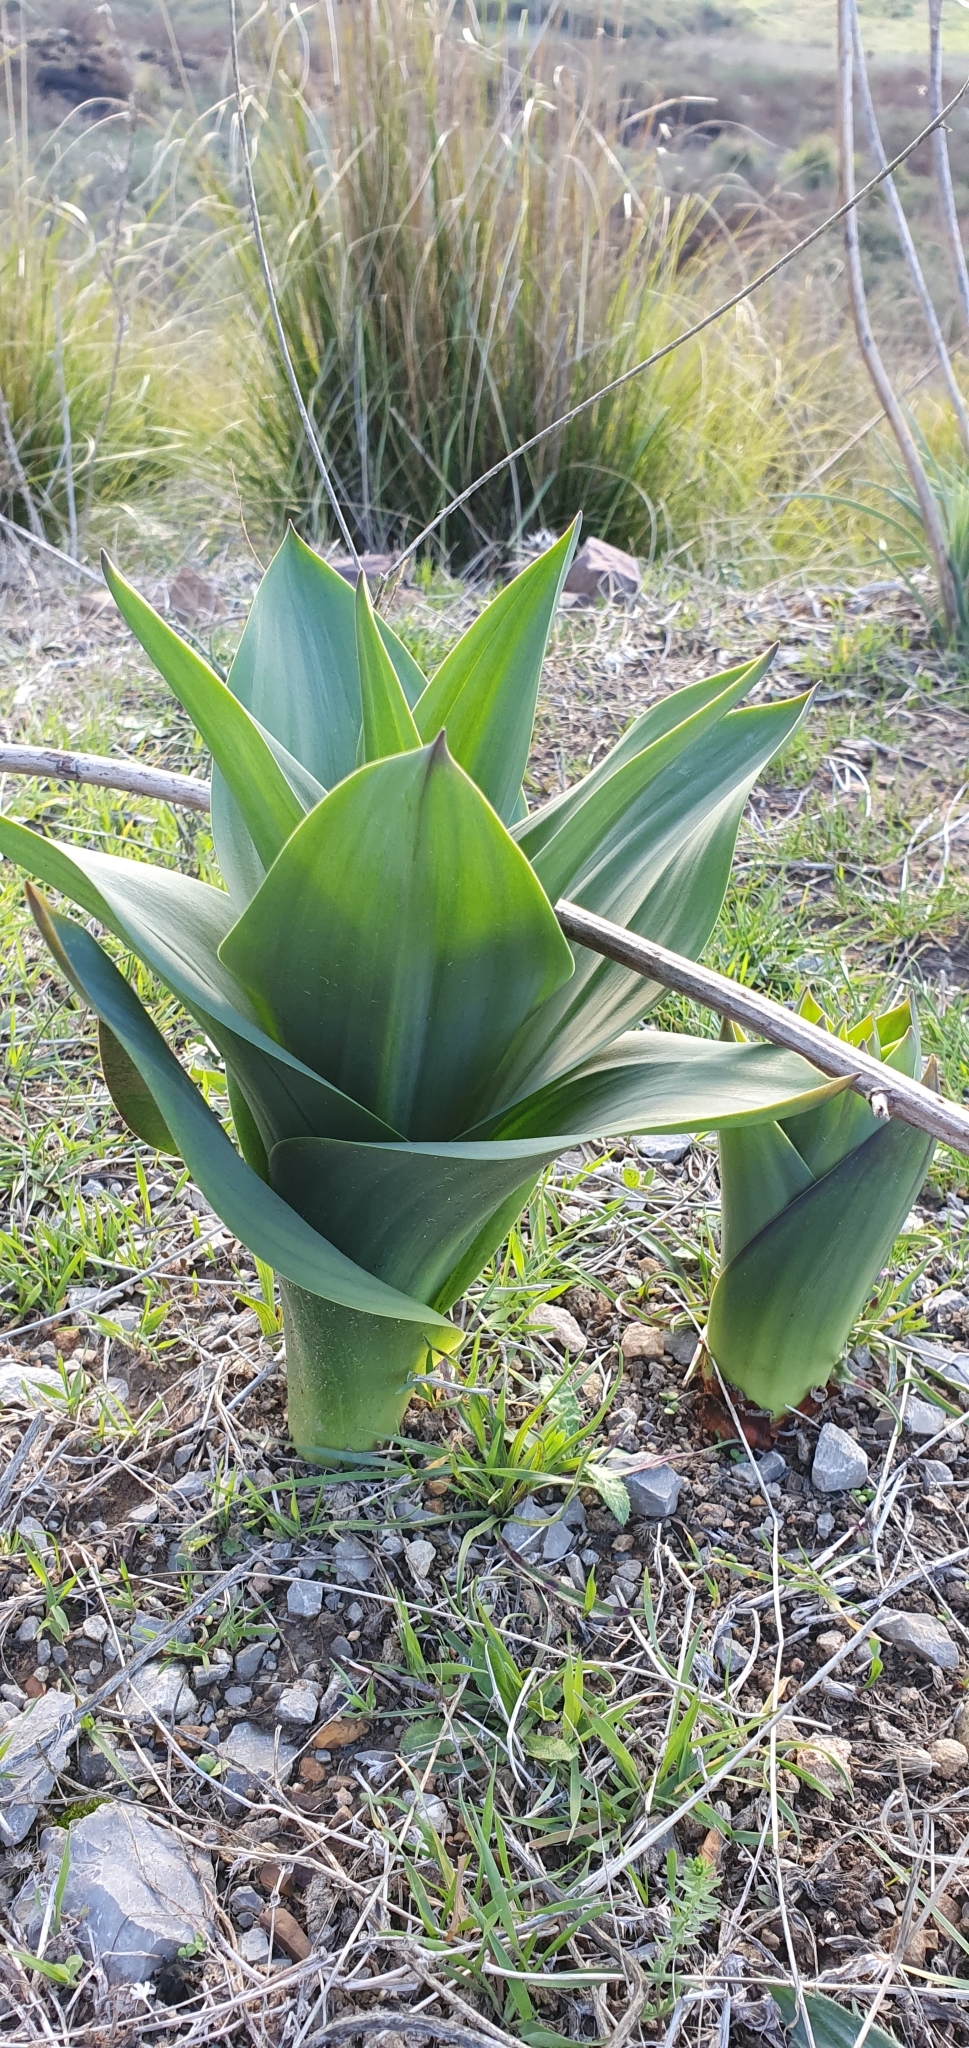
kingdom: Plantae
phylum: Tracheophyta
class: Liliopsida
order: Asparagales
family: Asparagaceae
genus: Drimia
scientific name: Drimia numidica
